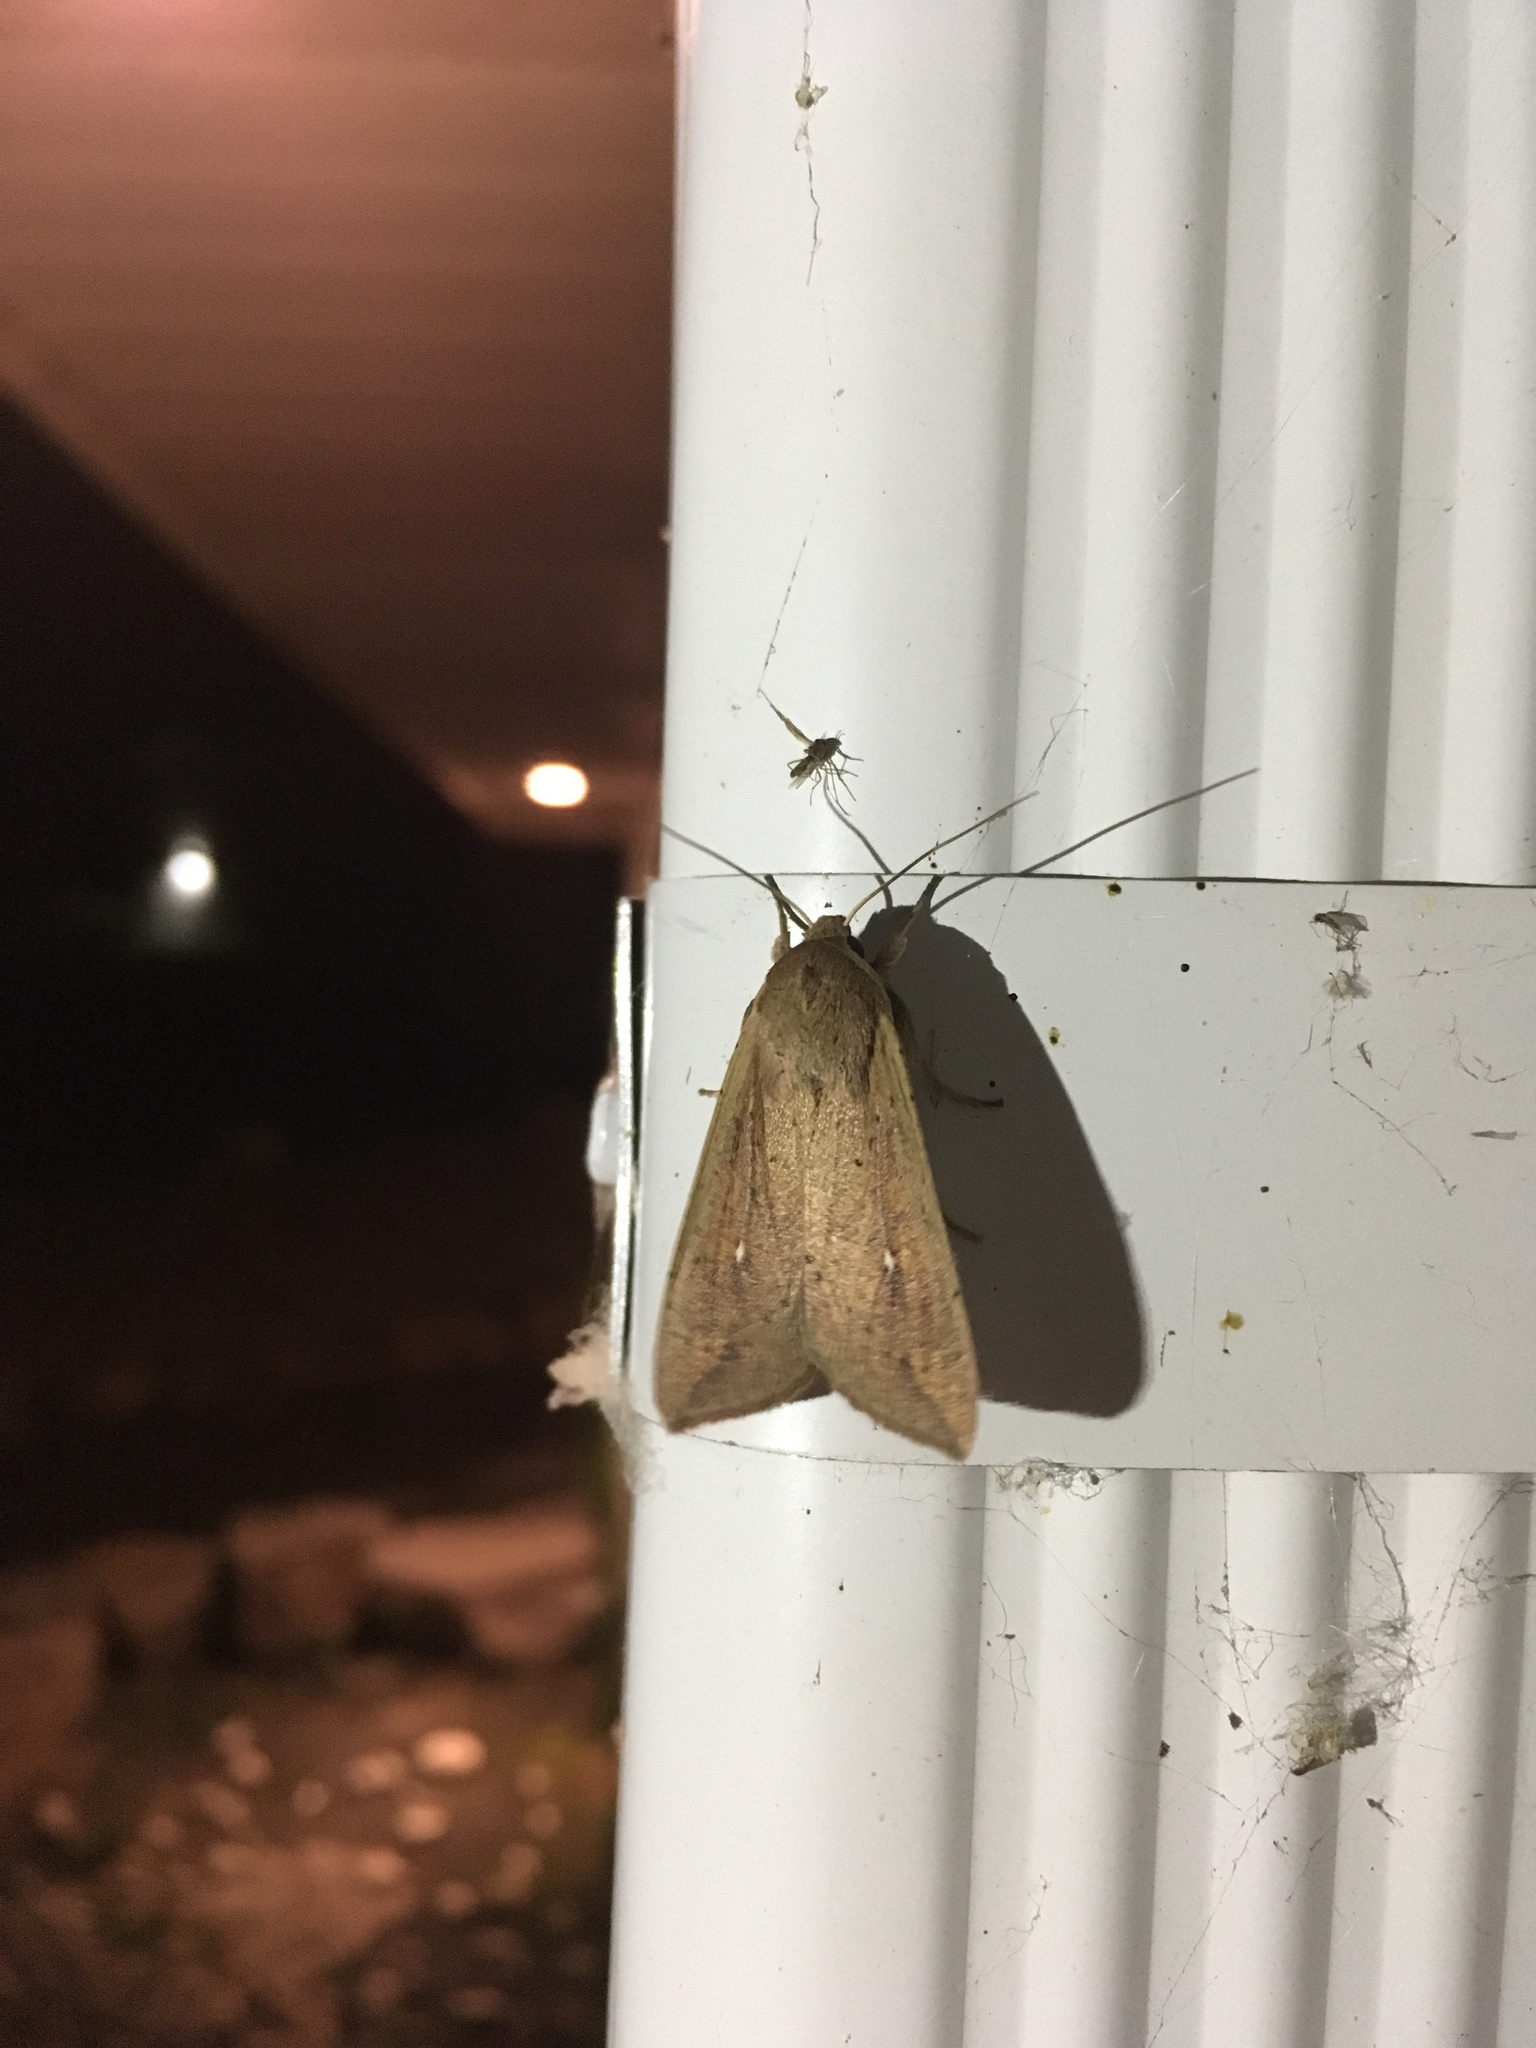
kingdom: Animalia
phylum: Arthropoda
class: Insecta
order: Lepidoptera
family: Noctuidae
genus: Mythimna
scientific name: Mythimna unipuncta
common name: White-speck
